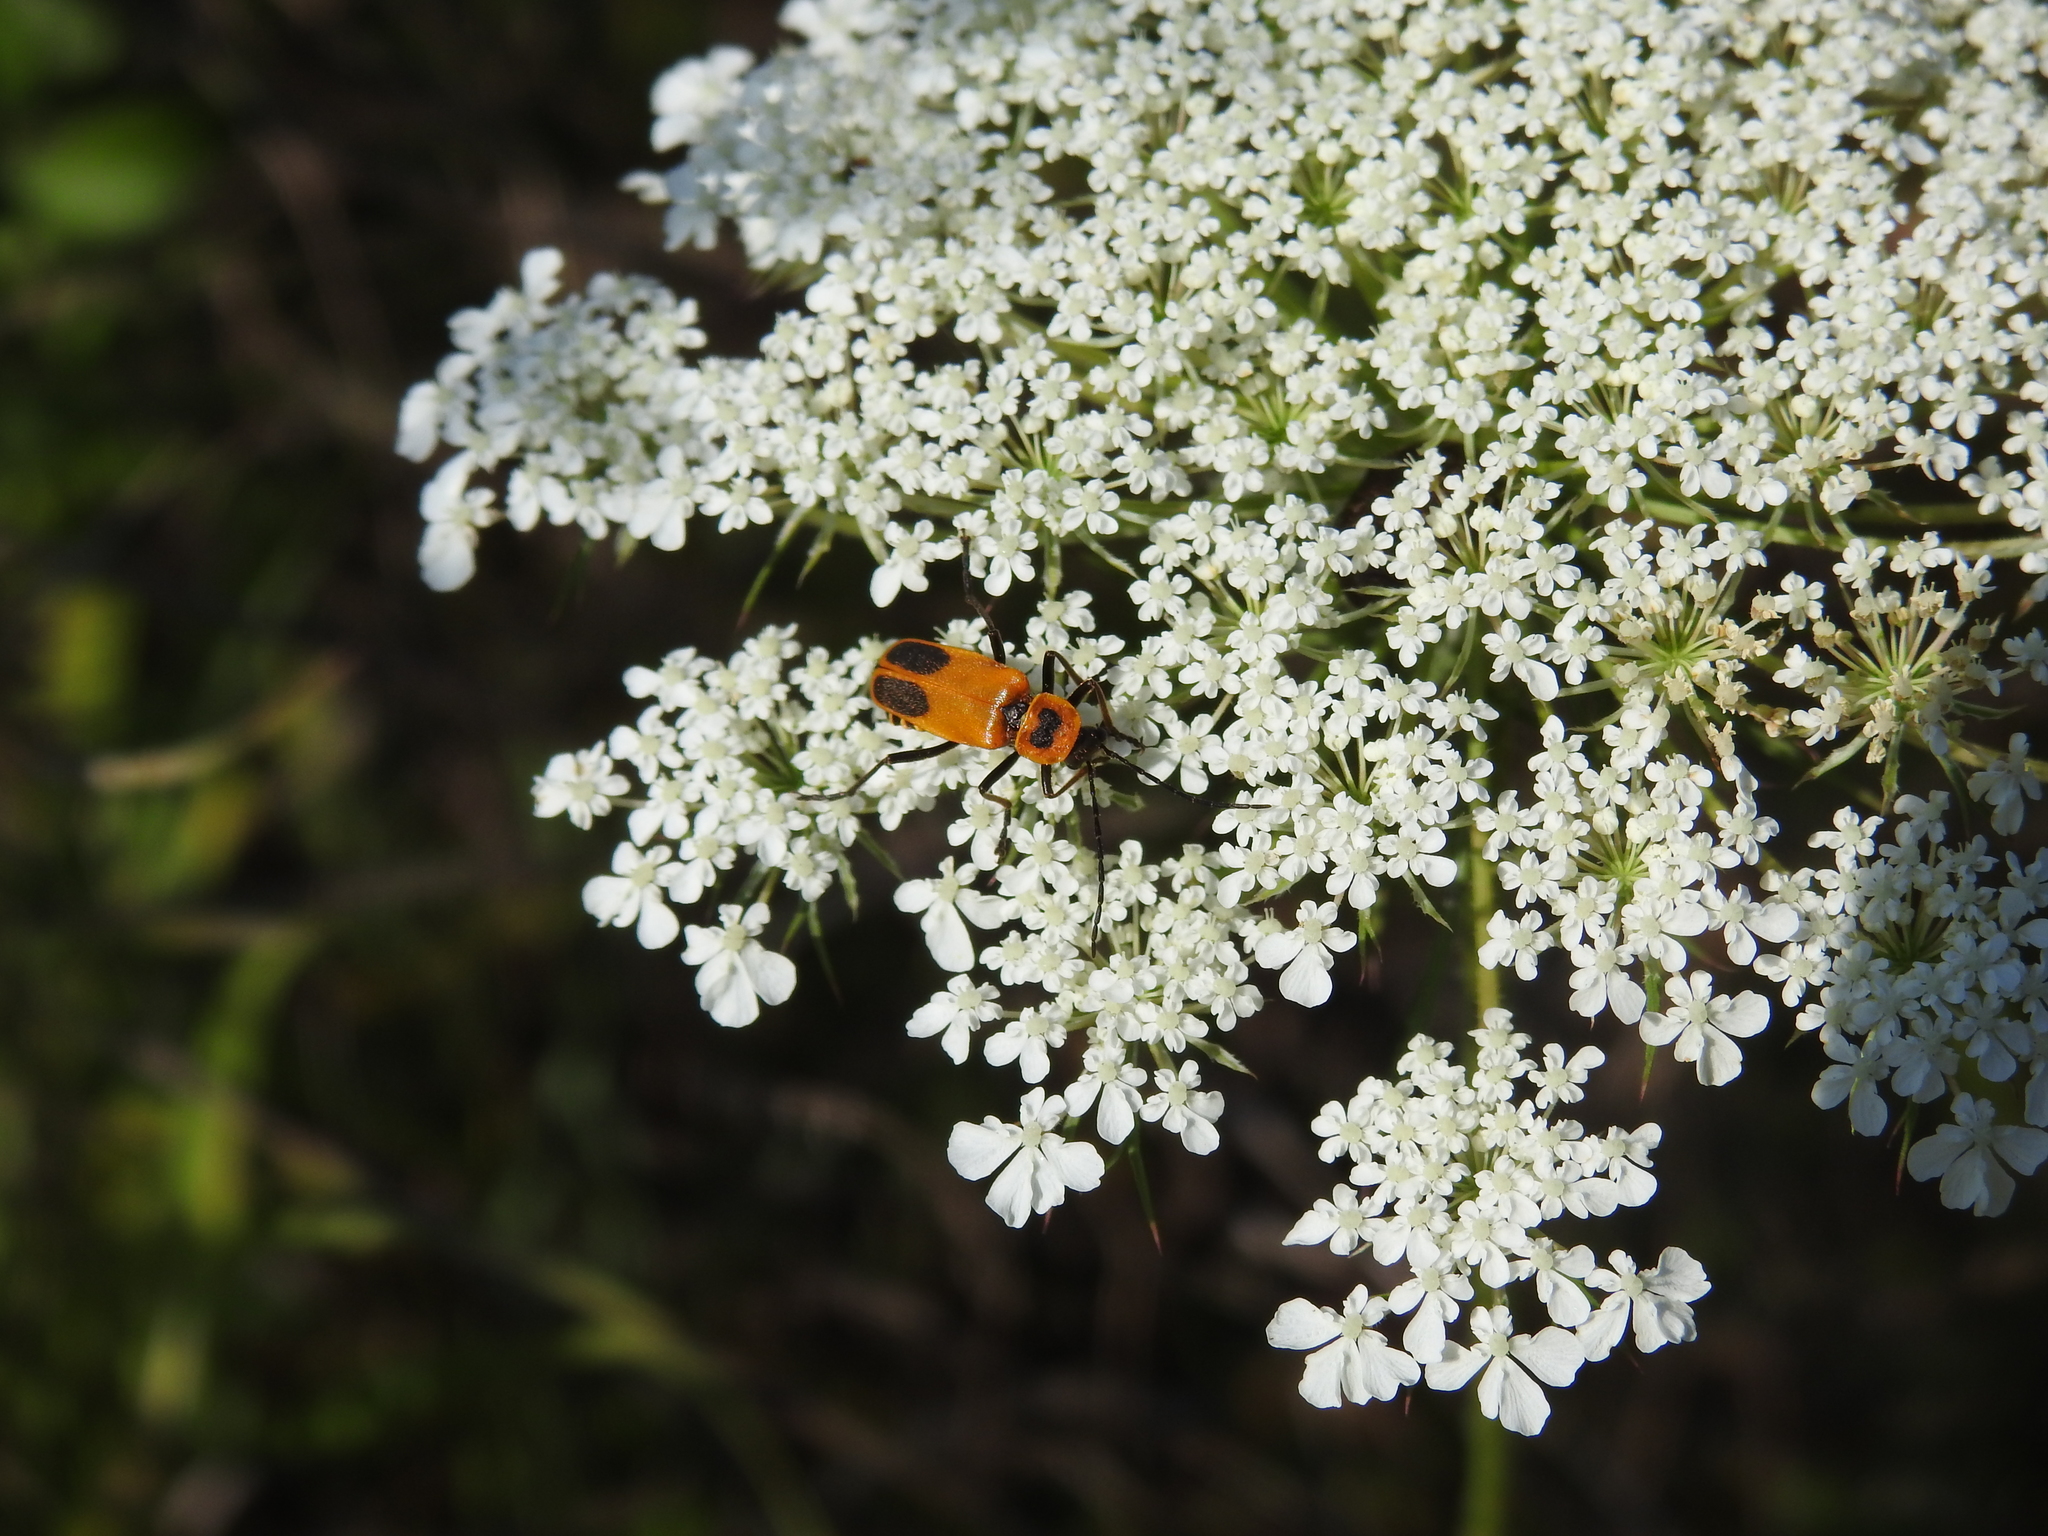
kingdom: Animalia
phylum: Arthropoda
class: Insecta
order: Coleoptera
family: Cantharidae
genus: Chauliognathus
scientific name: Chauliognathus pensylvanicus
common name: Goldenrod soldier beetle
